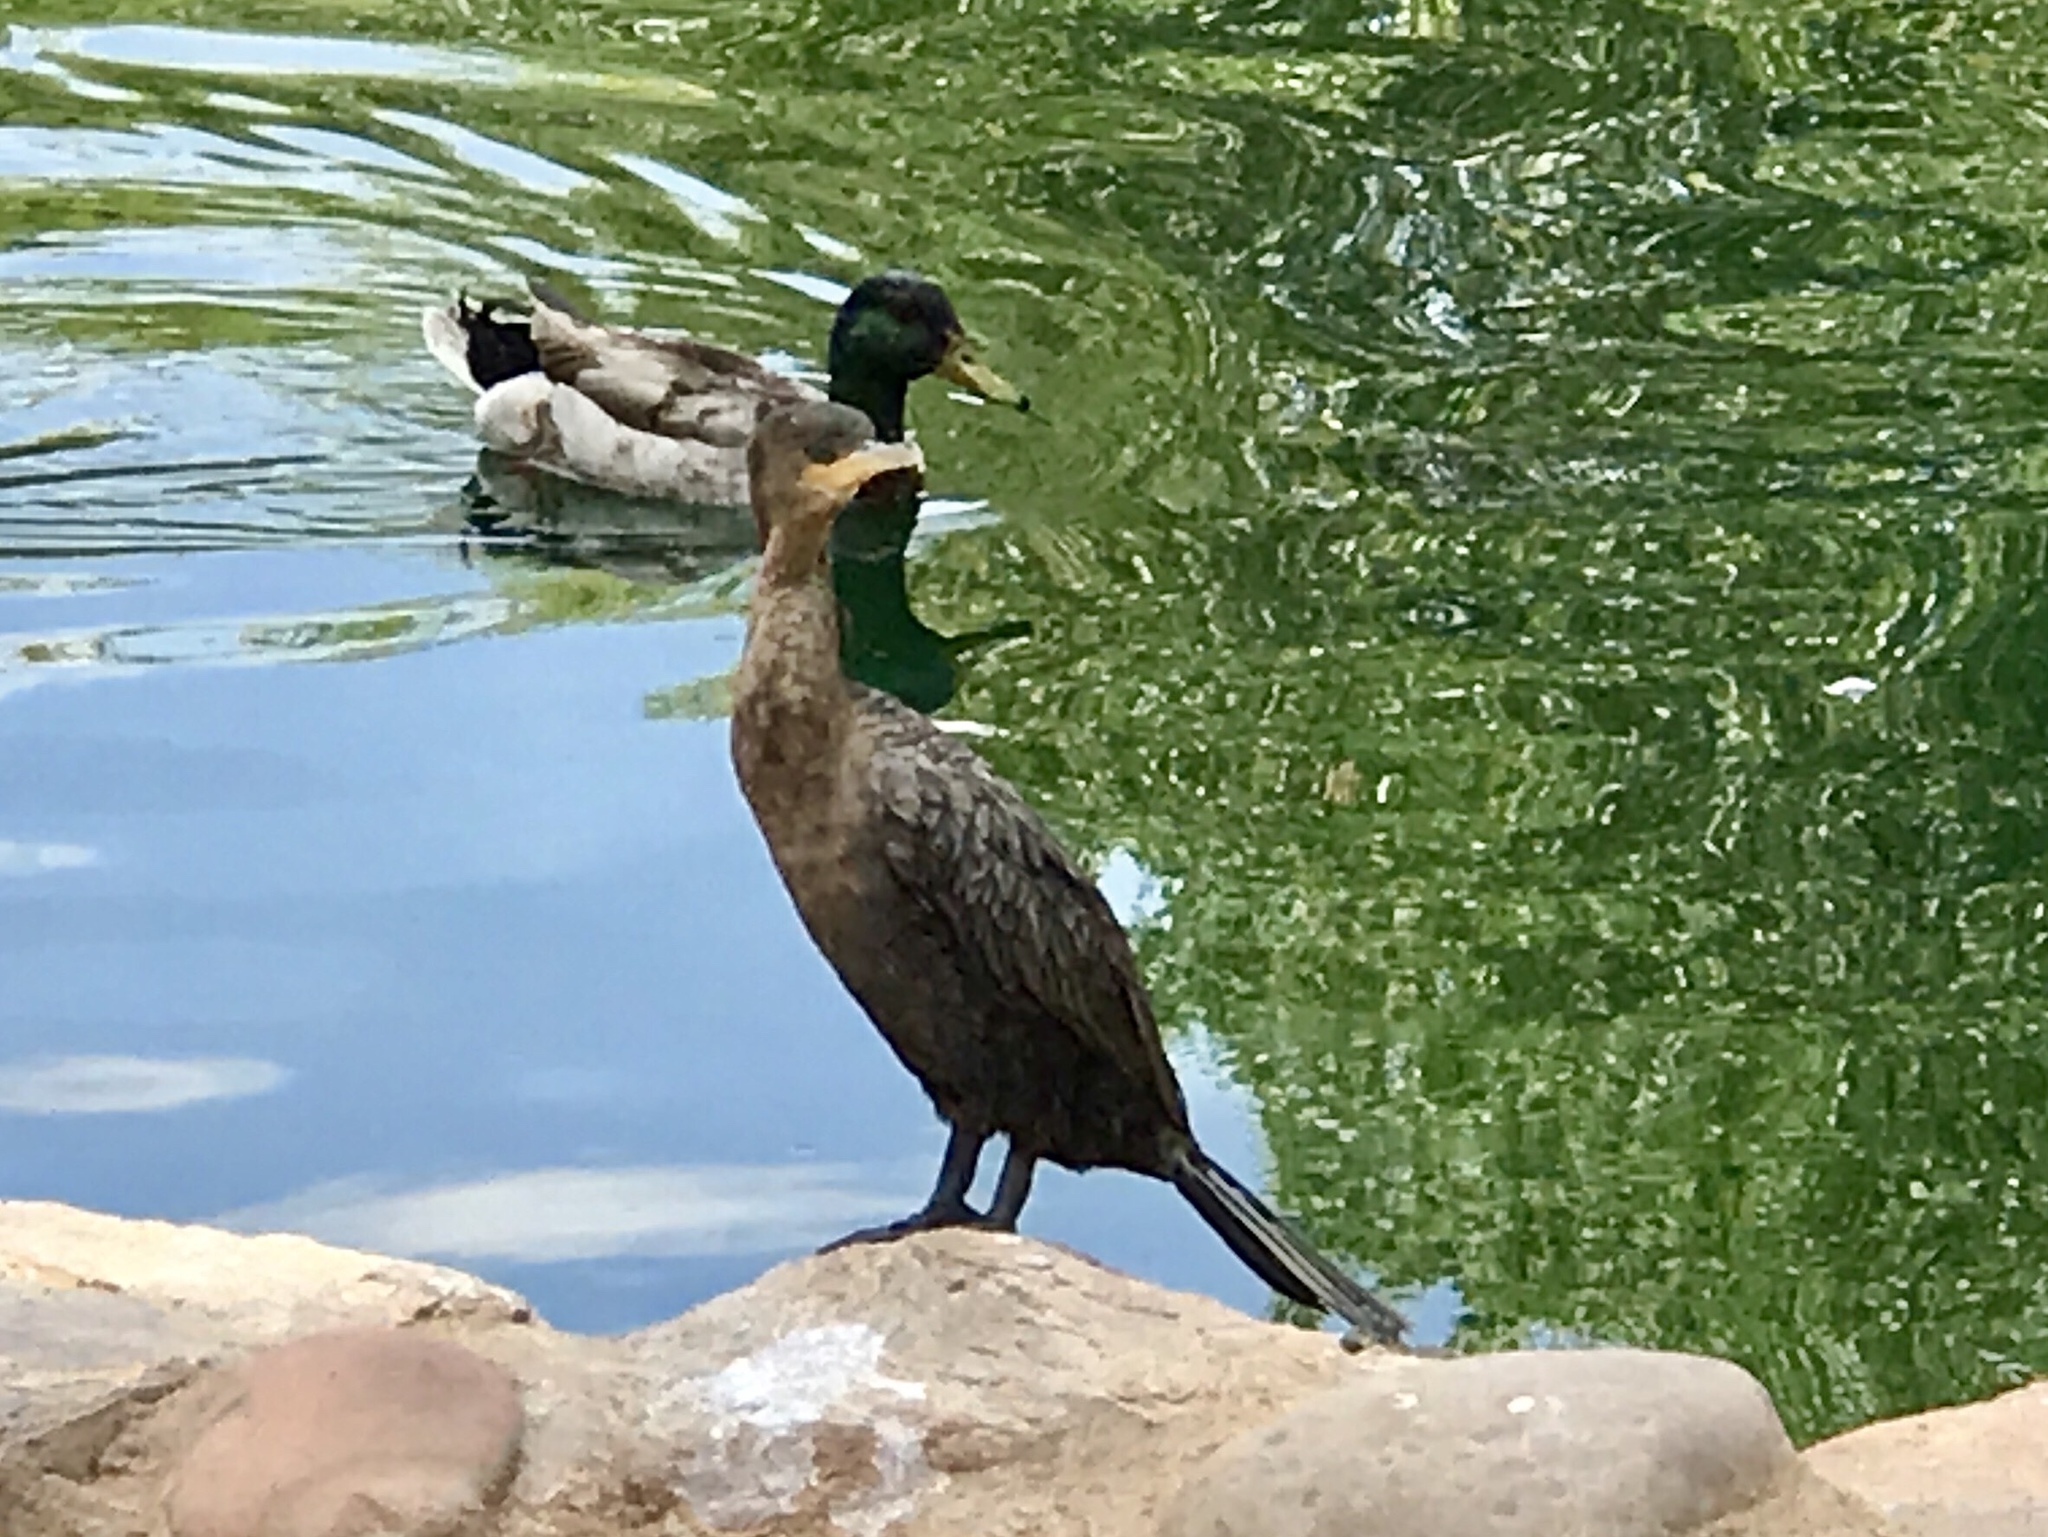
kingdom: Animalia
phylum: Chordata
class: Aves
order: Suliformes
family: Phalacrocoracidae
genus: Phalacrocorax
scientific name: Phalacrocorax brasilianus
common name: Neotropic cormorant
